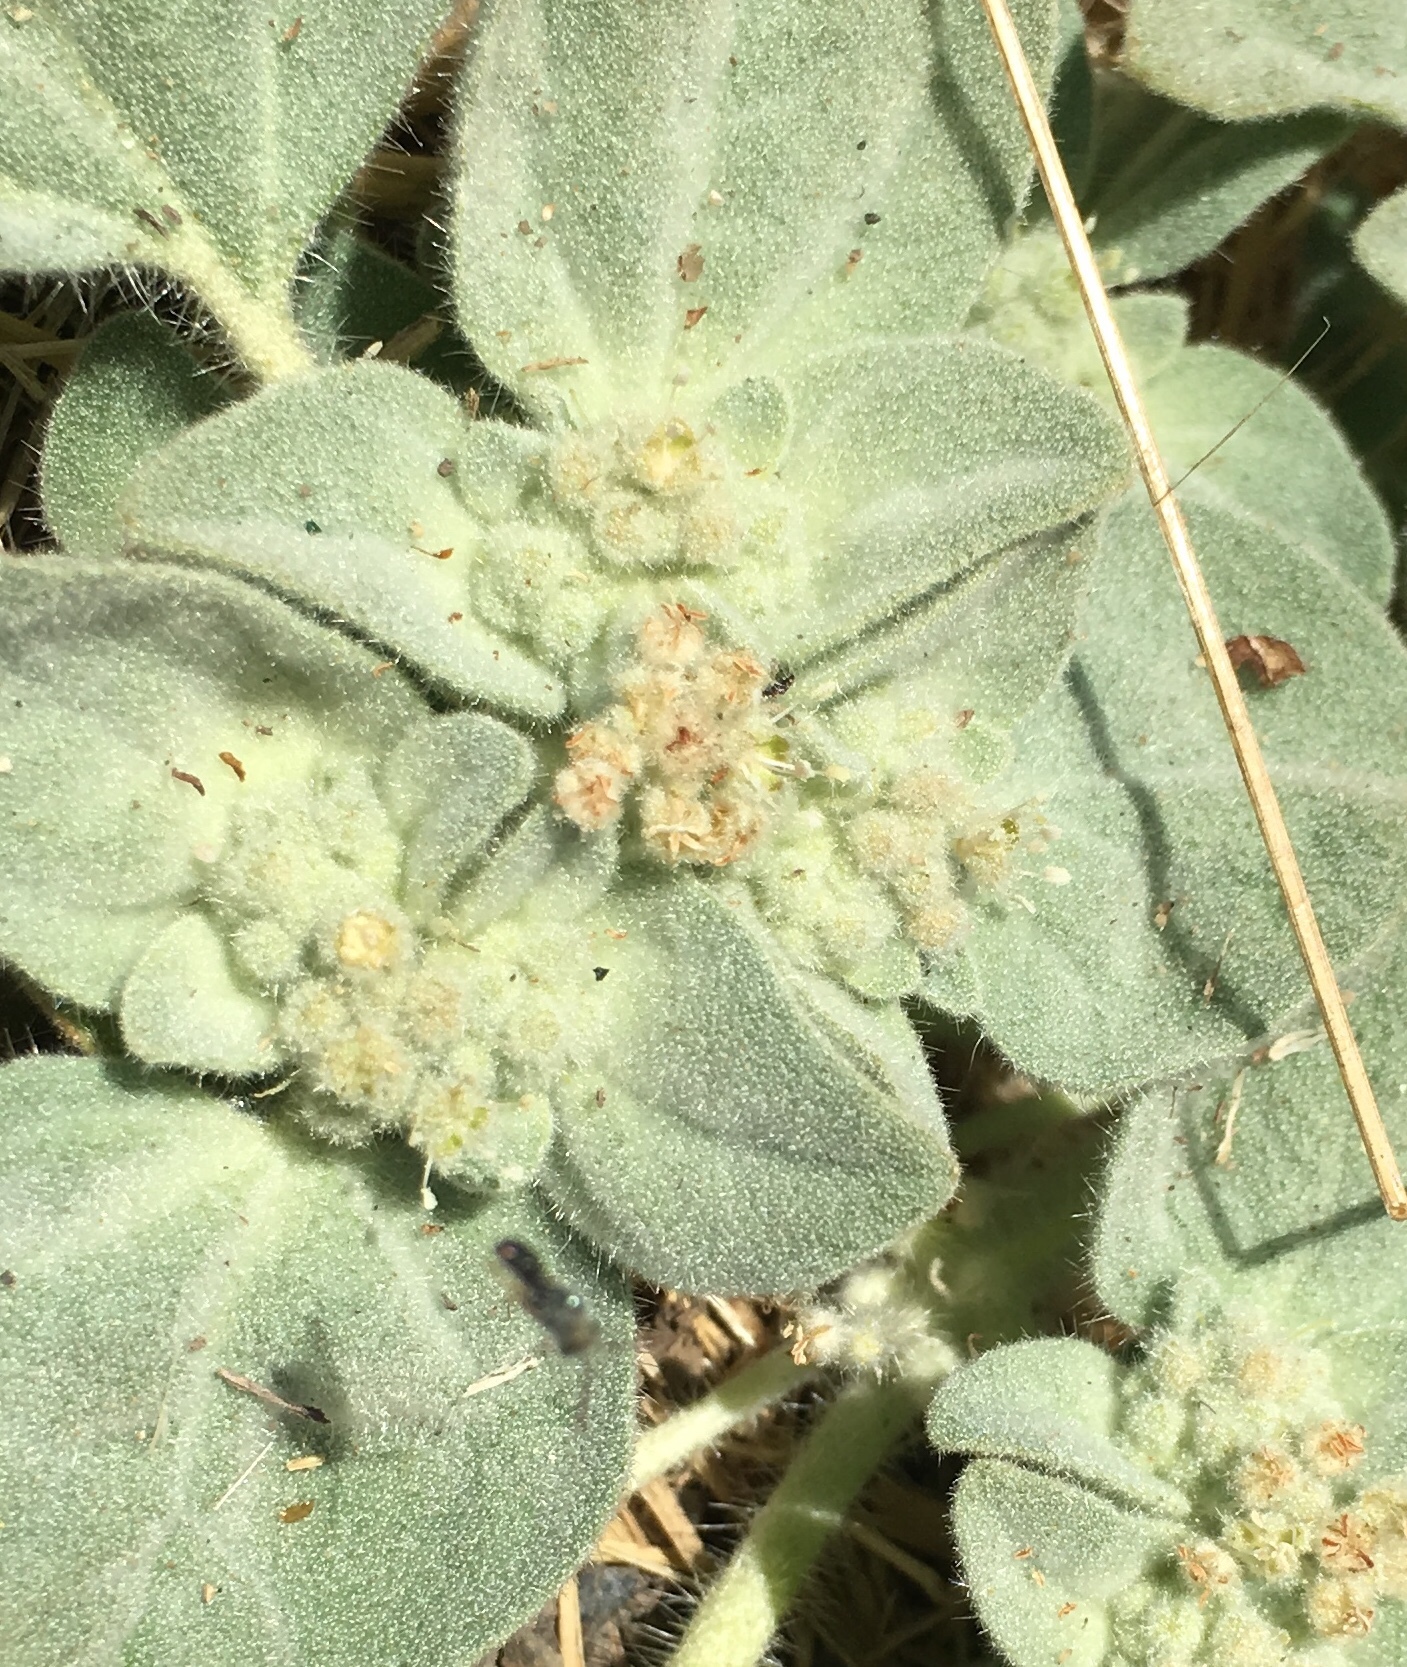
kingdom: Plantae
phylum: Tracheophyta
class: Magnoliopsida
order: Malpighiales
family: Euphorbiaceae
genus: Croton
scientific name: Croton setiger
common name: Dove weed
